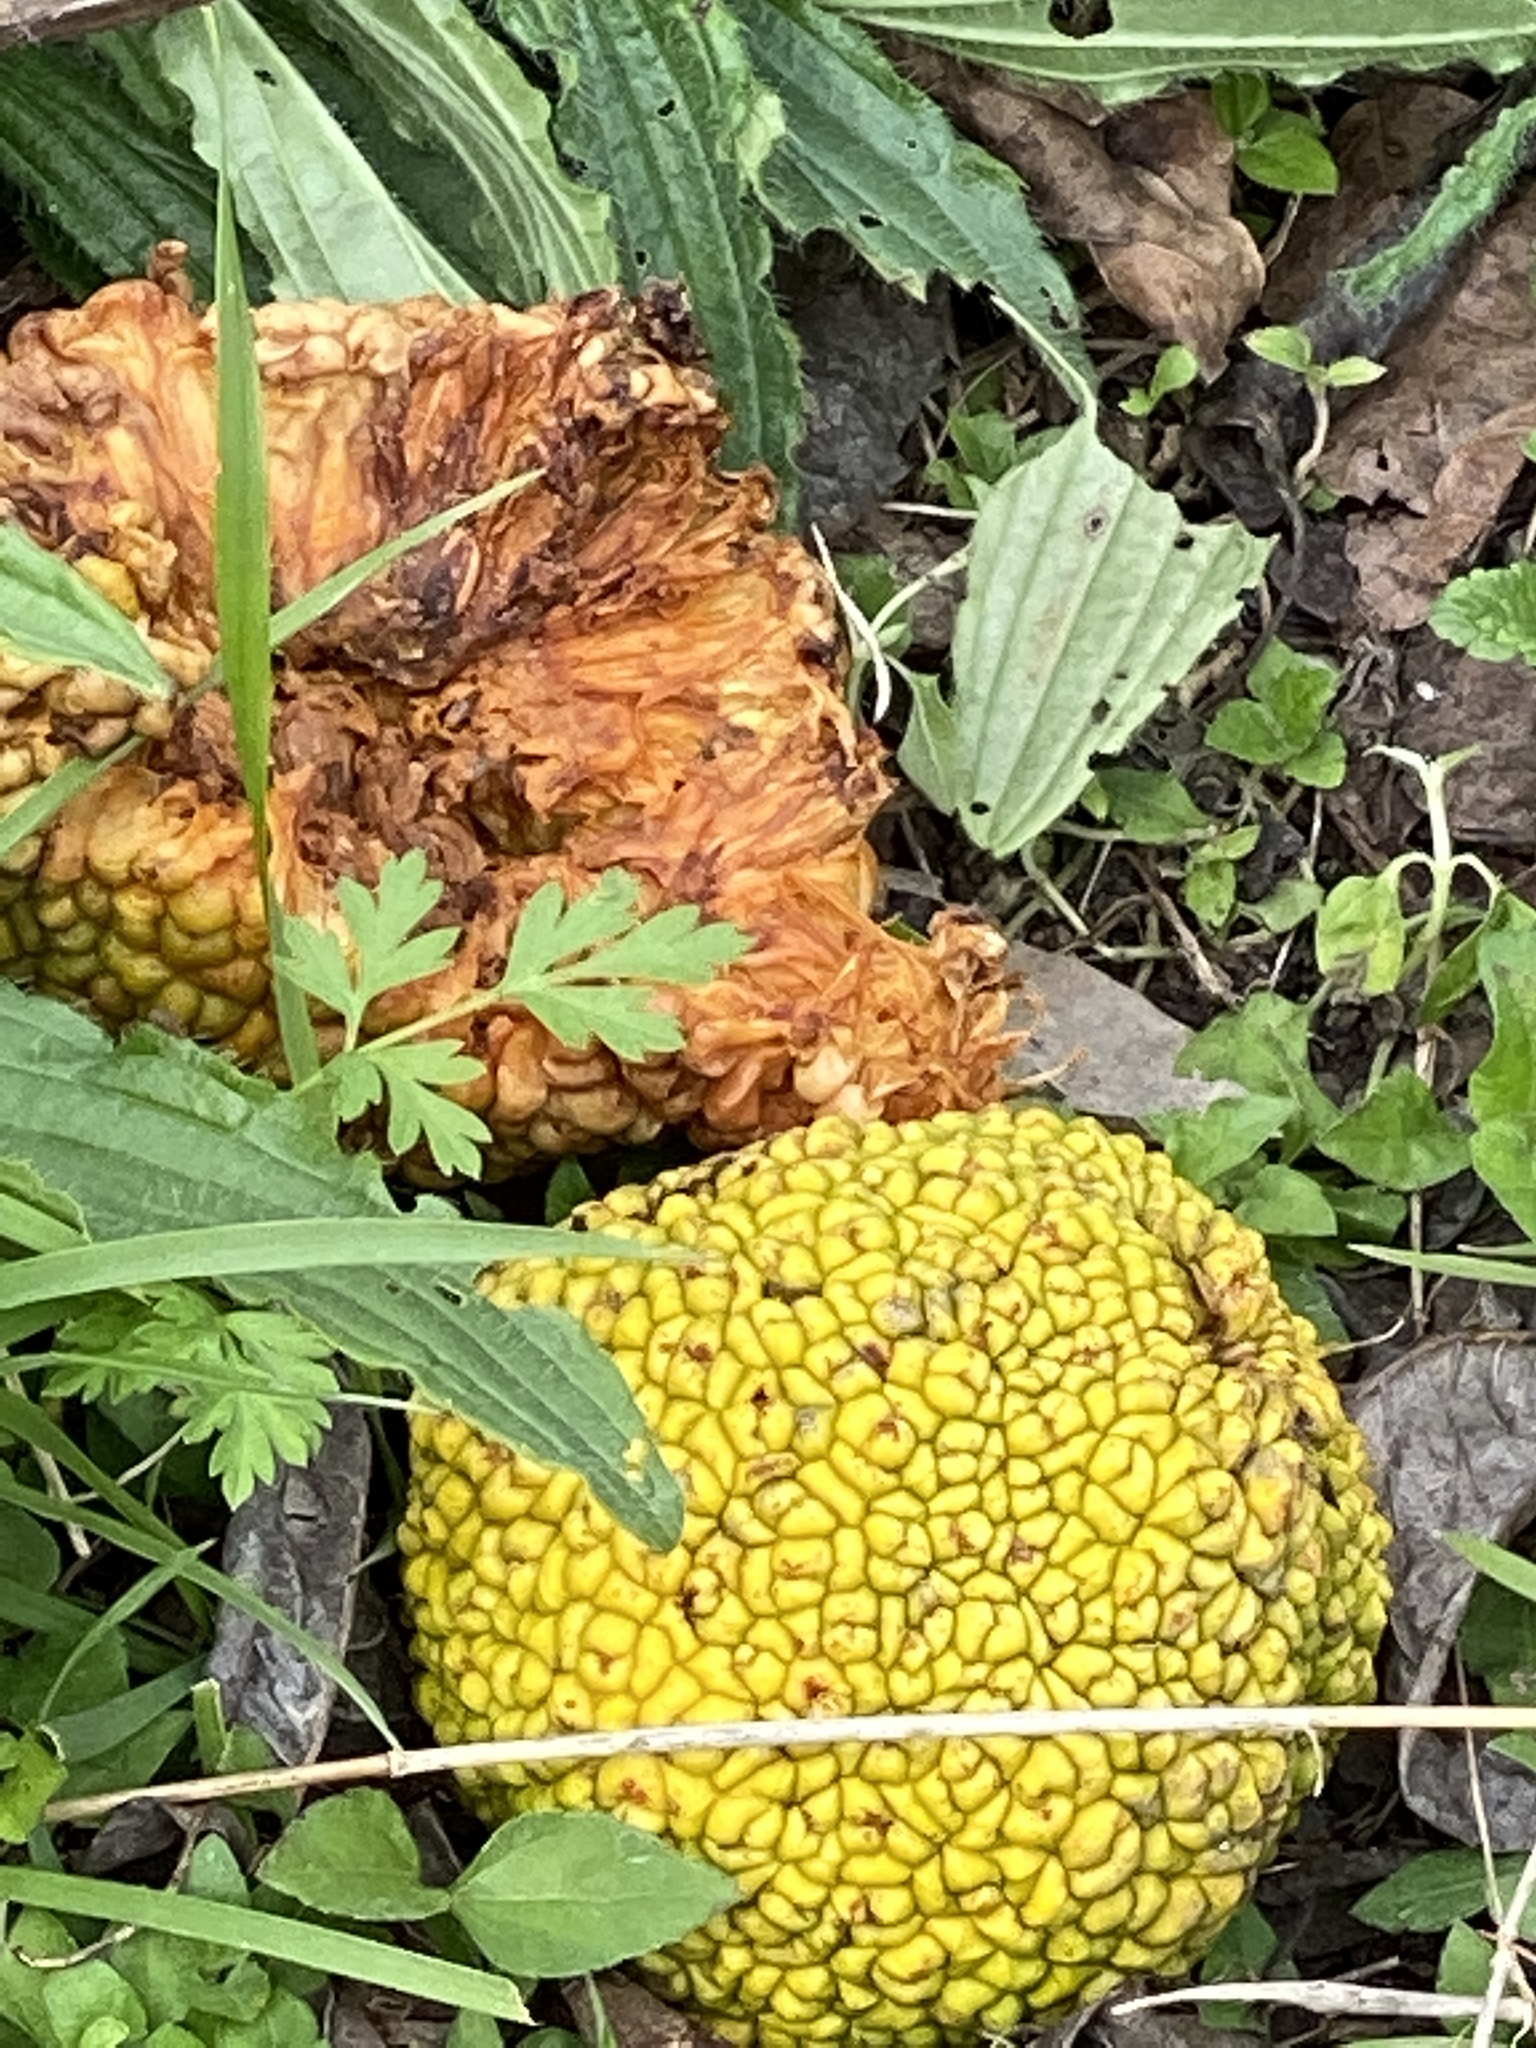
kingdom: Plantae
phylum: Tracheophyta
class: Magnoliopsida
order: Rosales
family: Moraceae
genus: Maclura
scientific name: Maclura pomifera
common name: Osage-orange
